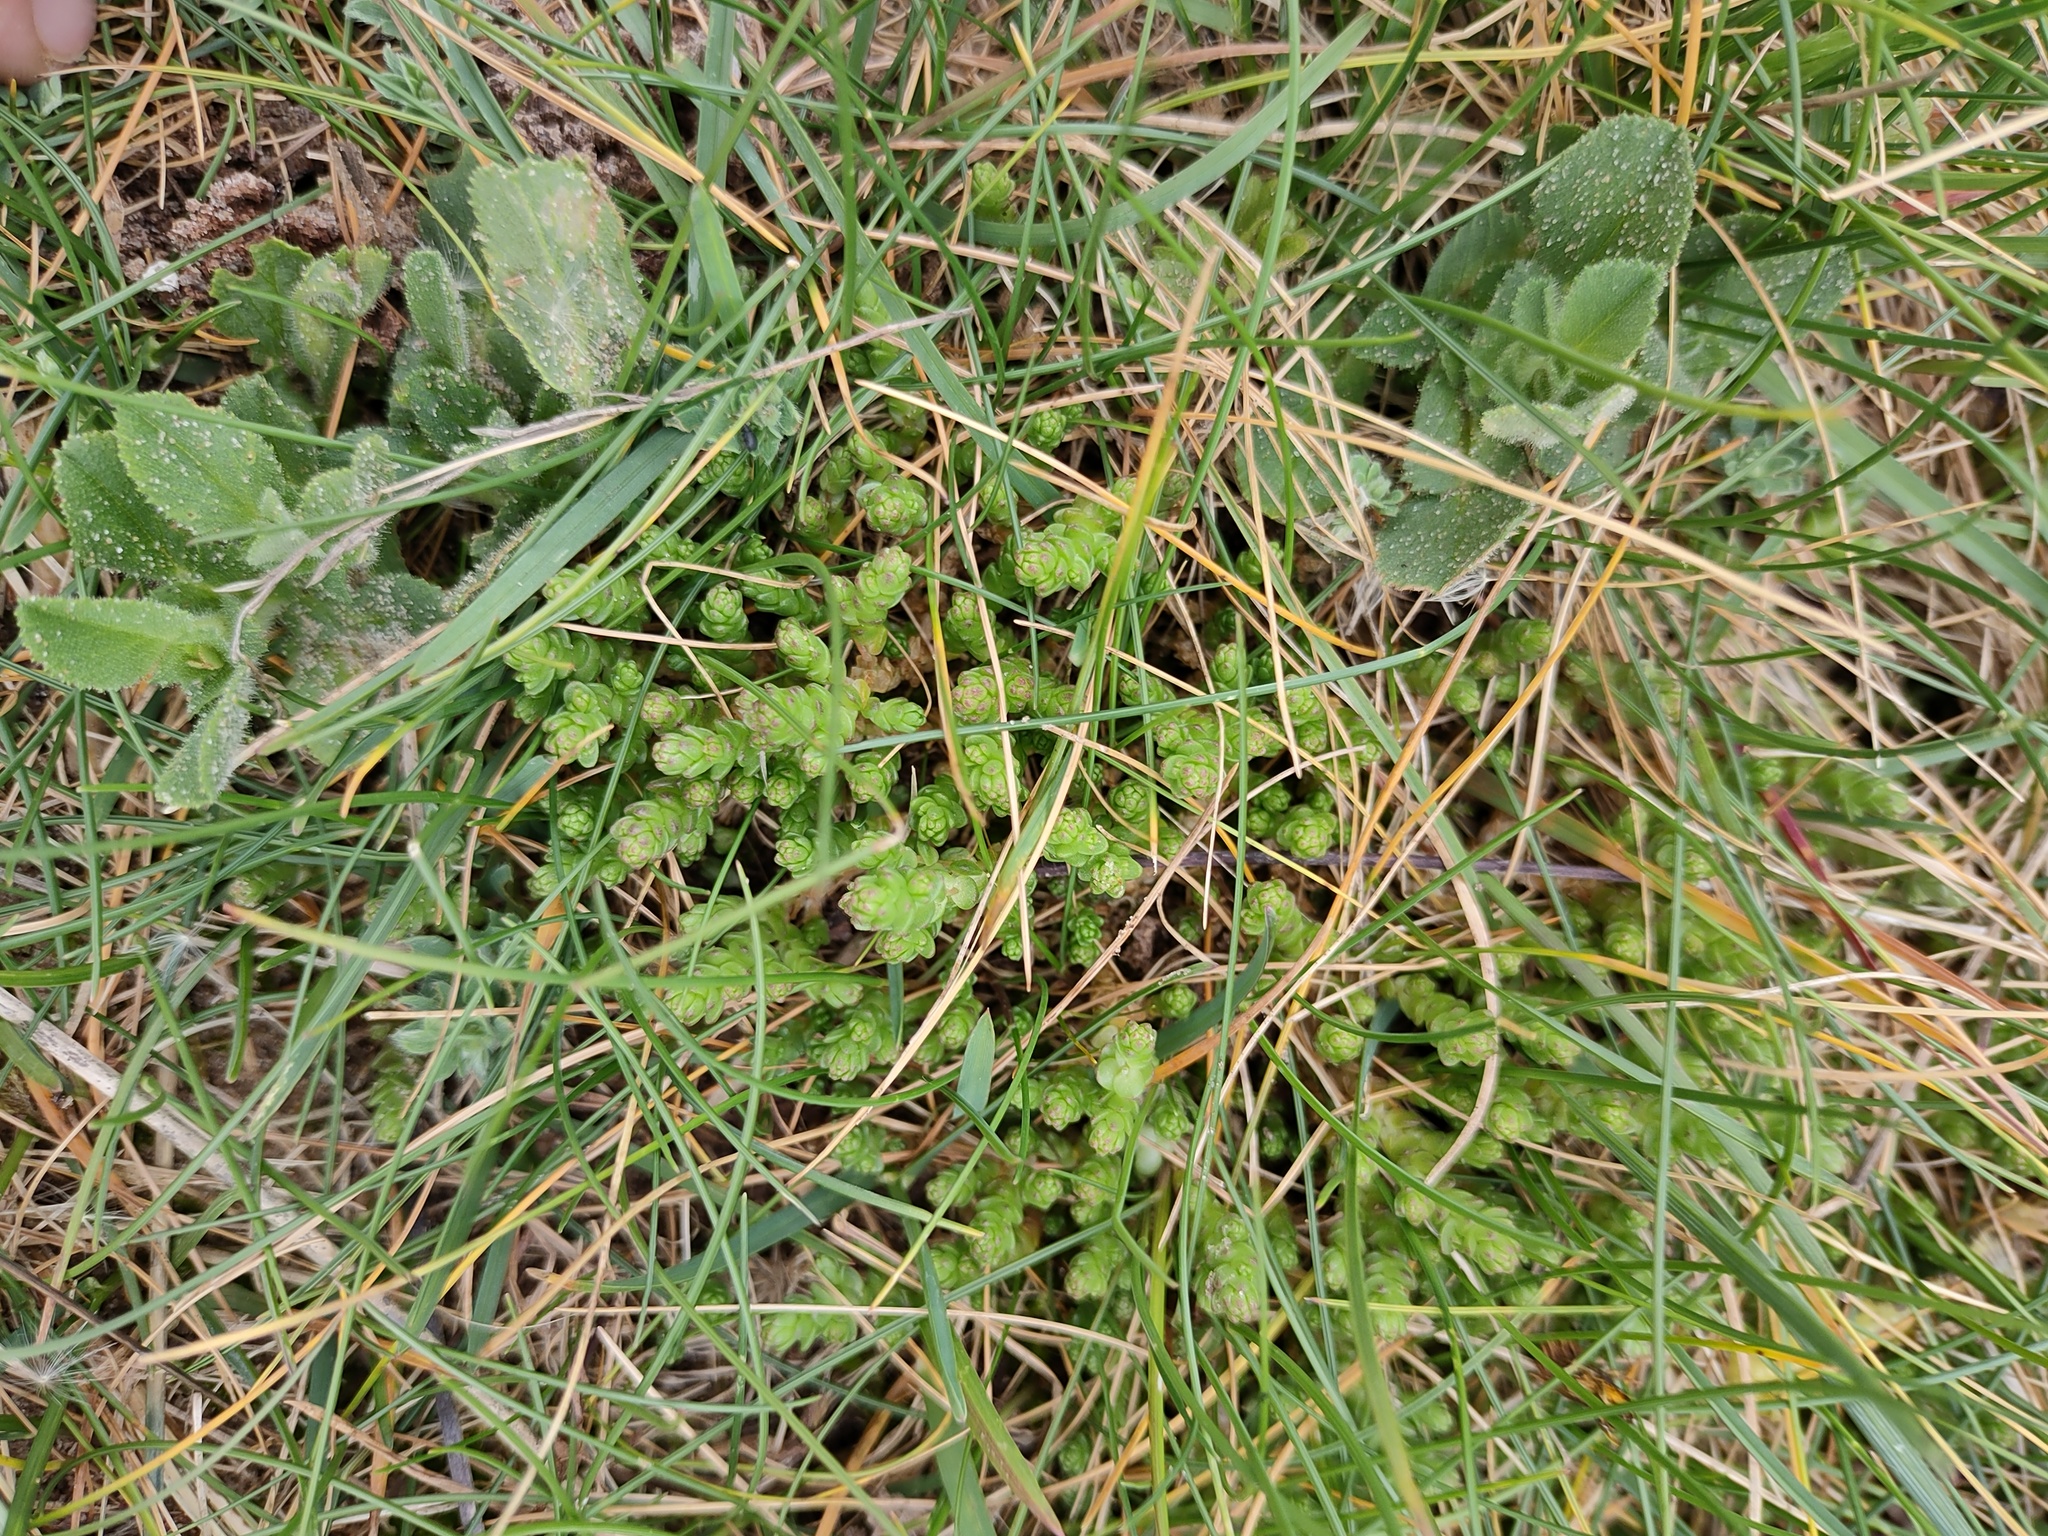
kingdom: Plantae
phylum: Tracheophyta
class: Magnoliopsida
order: Saxifragales
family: Crassulaceae
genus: Sedum
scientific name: Sedum acre
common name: Biting stonecrop
